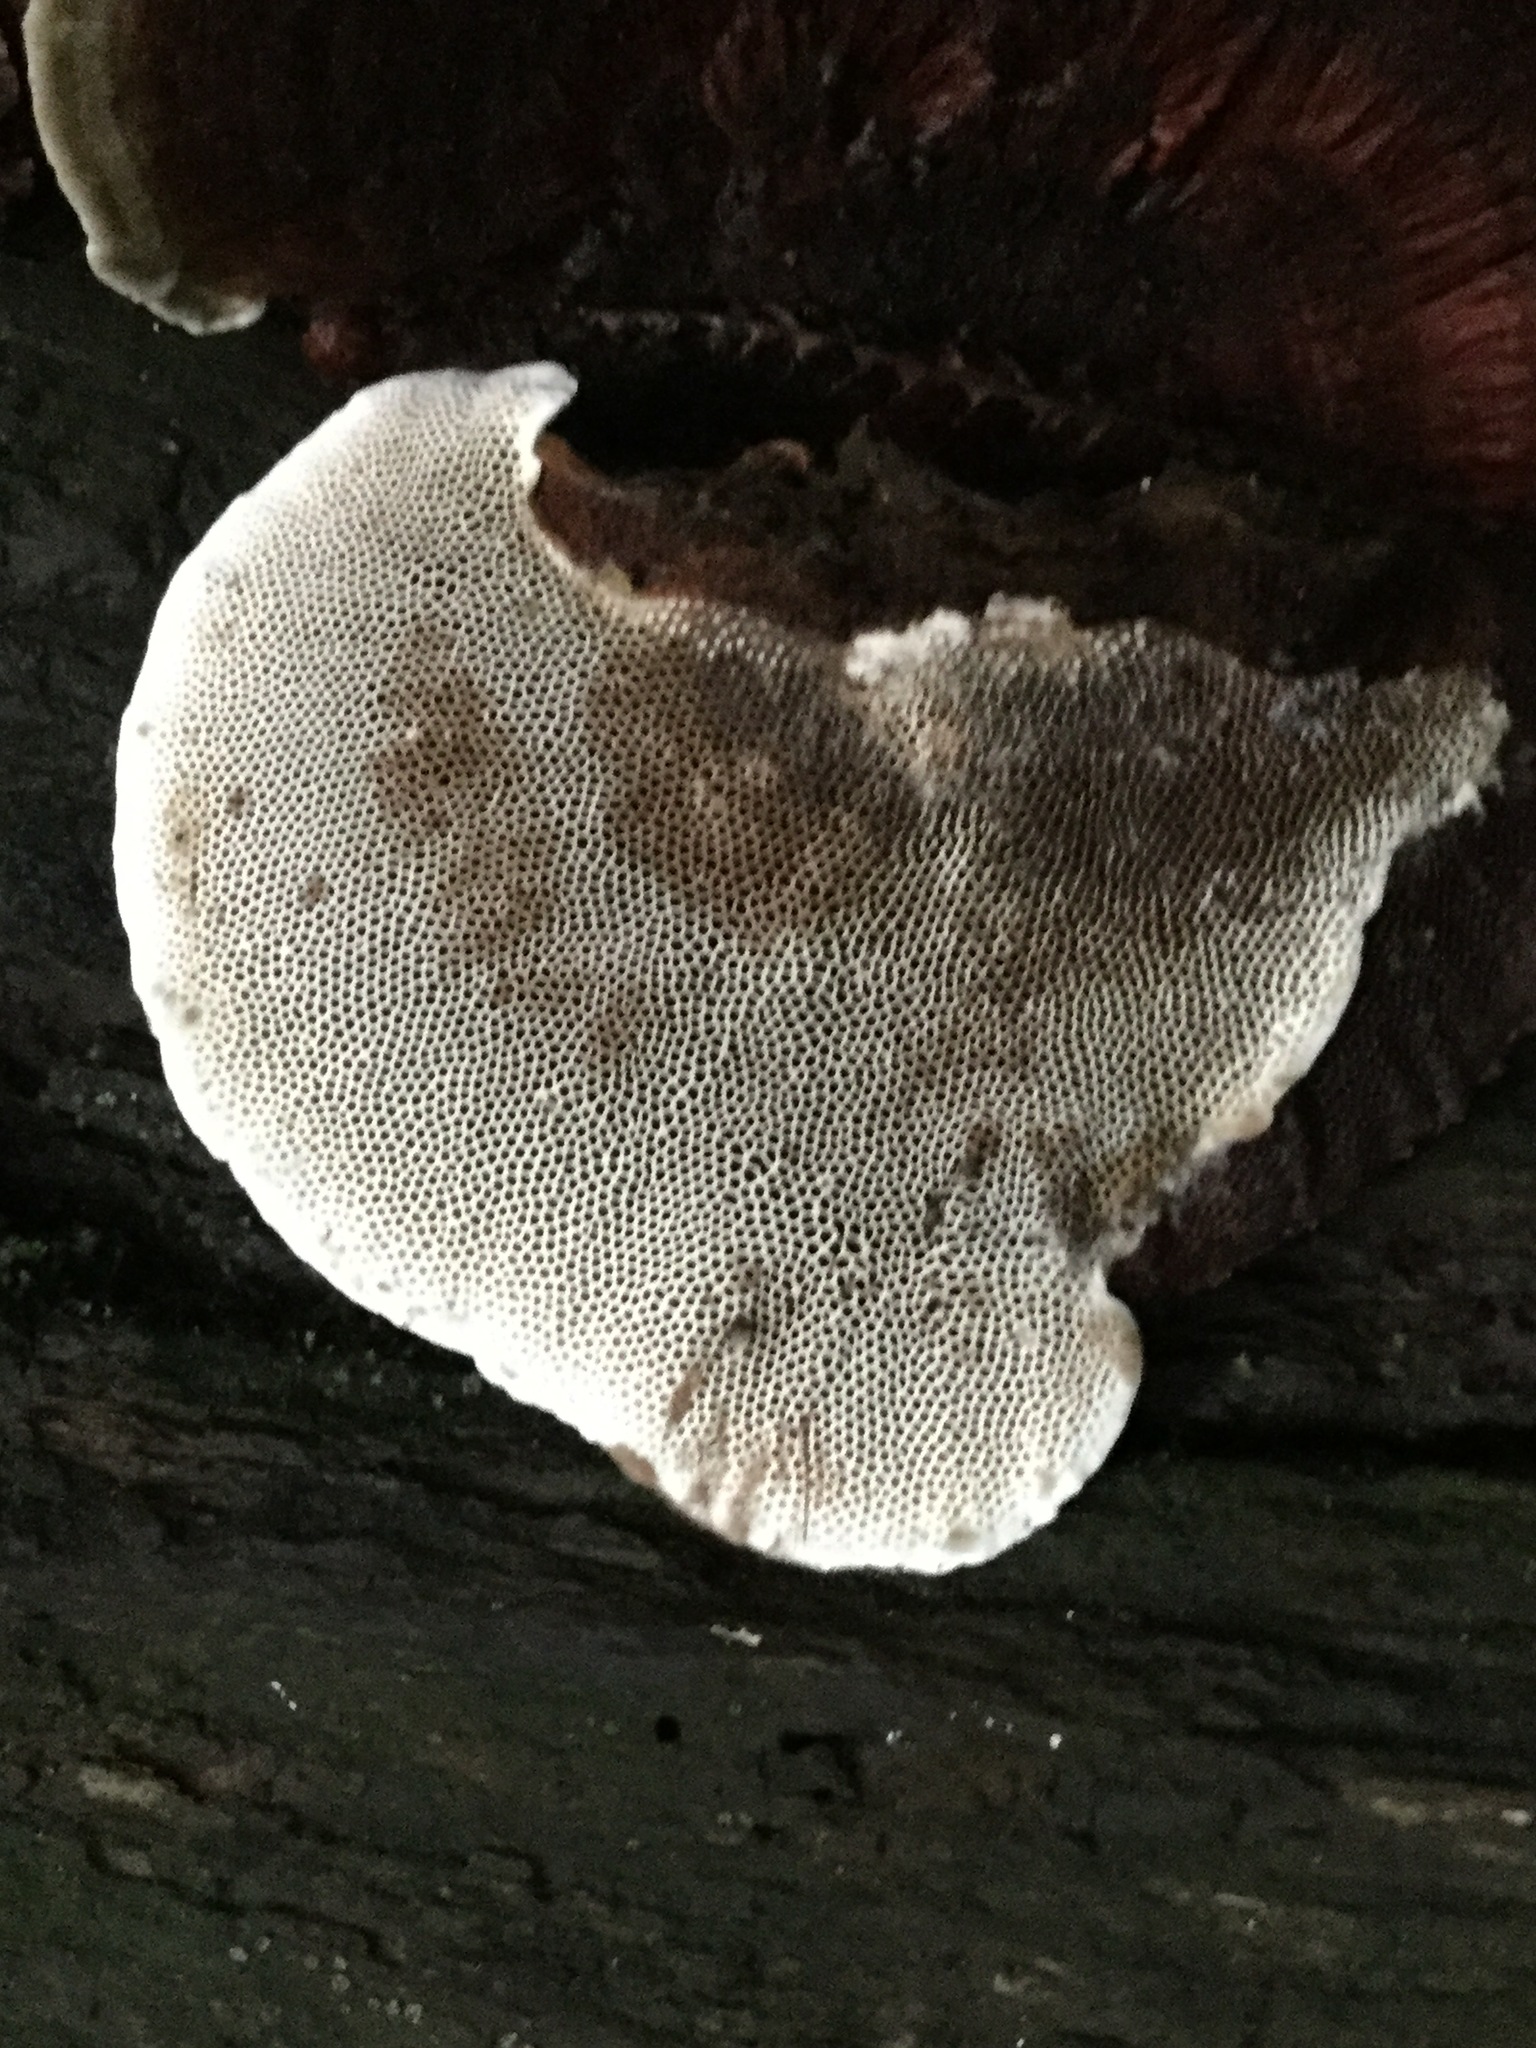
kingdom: Fungi
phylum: Basidiomycota
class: Agaricomycetes
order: Polyporales
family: Polyporaceae
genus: Pseudofavolus
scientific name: Pseudofavolus tenuis
